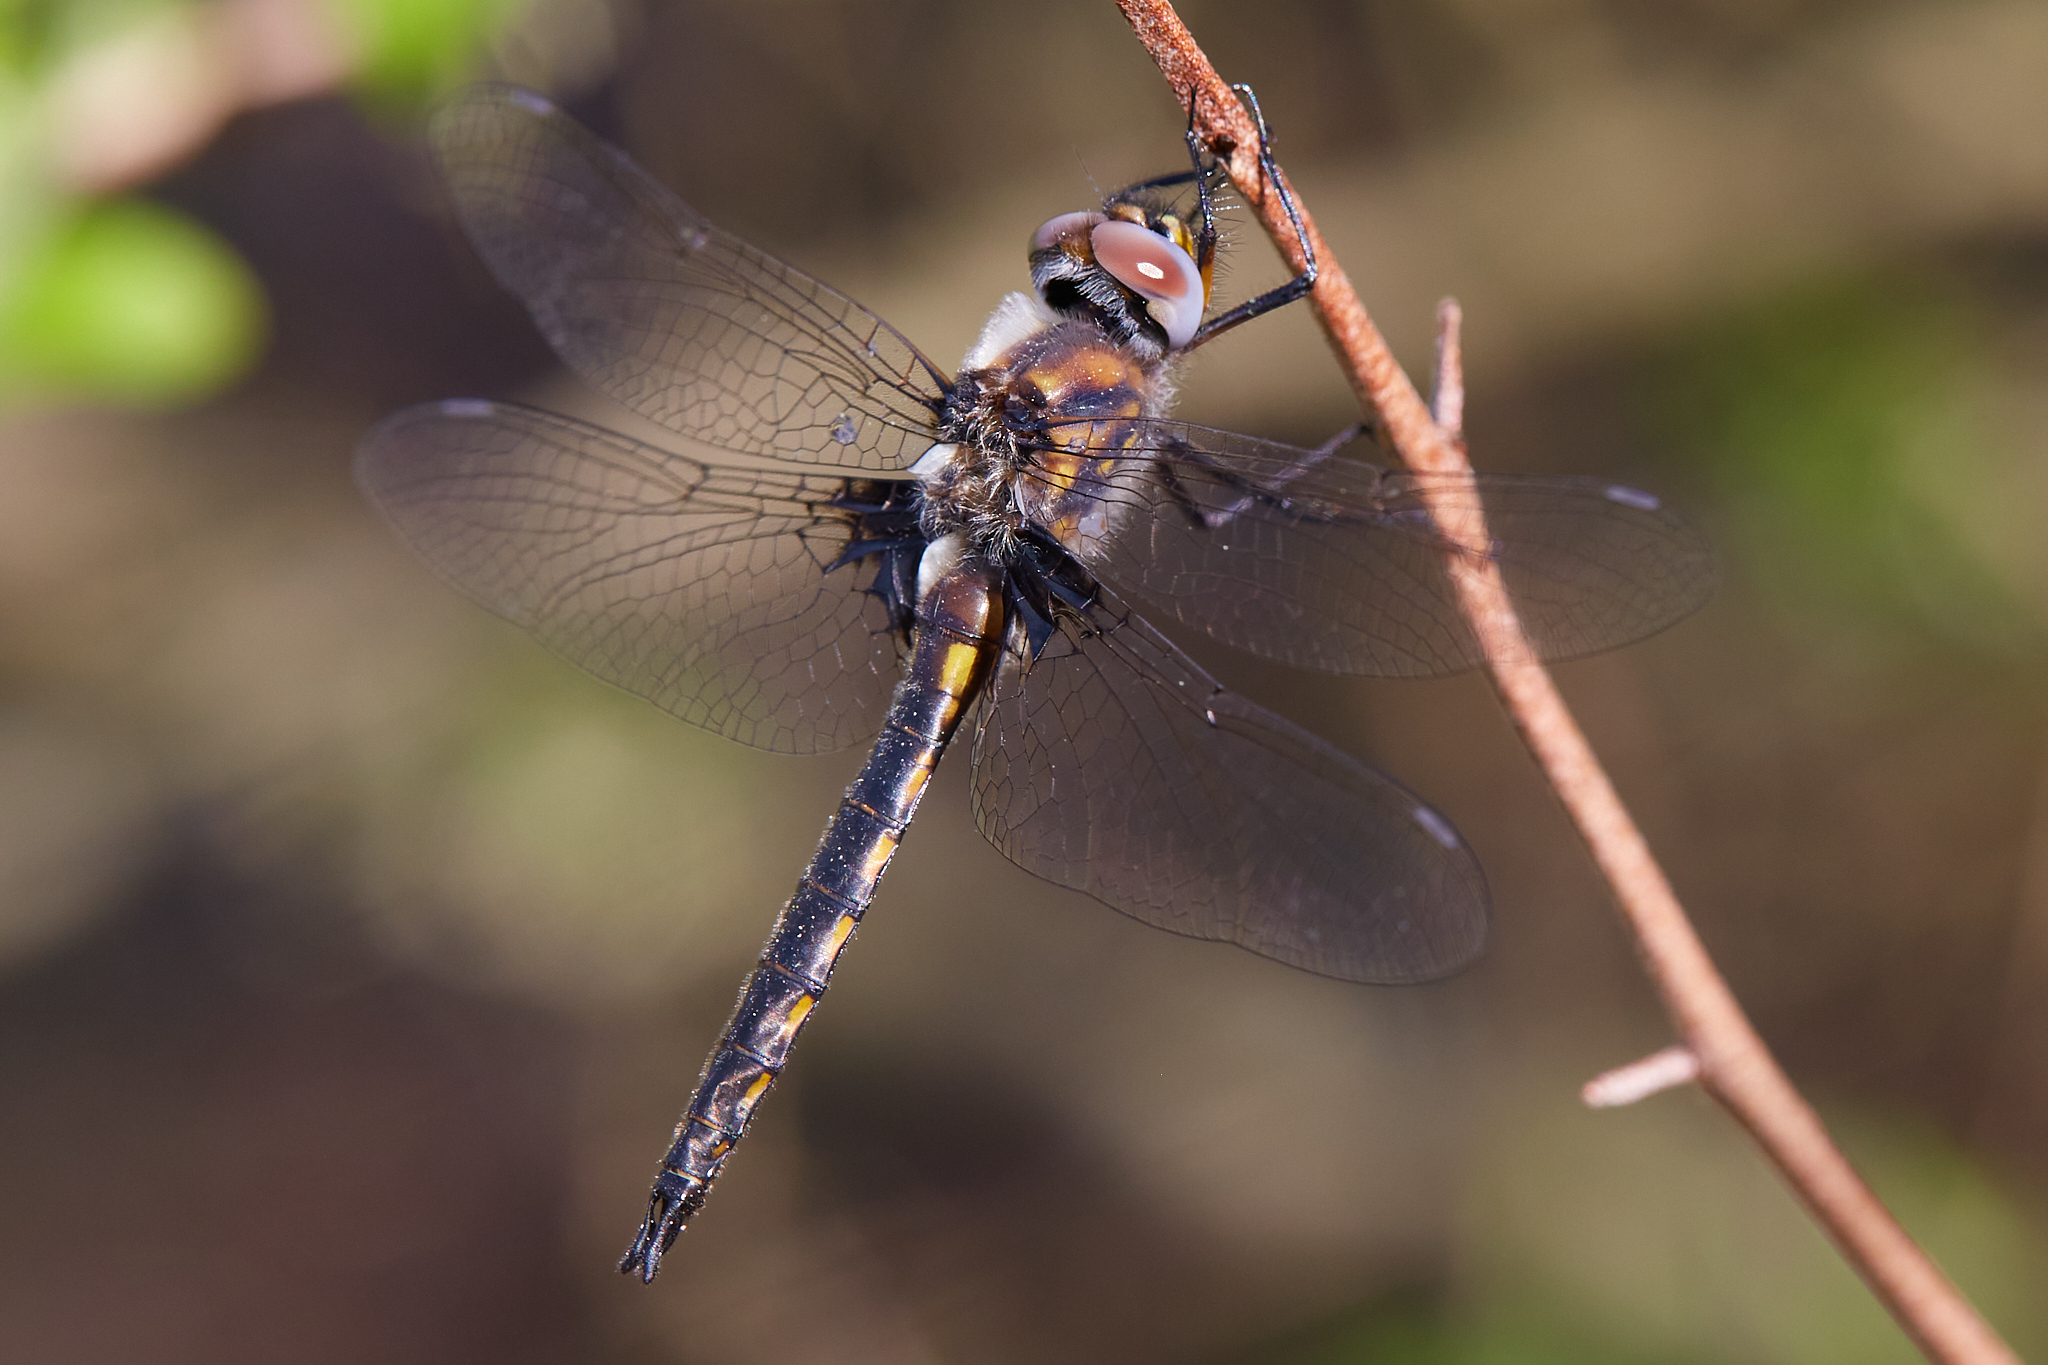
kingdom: Animalia
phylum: Arthropoda
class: Insecta
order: Odonata
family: Corduliidae
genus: Epitheca
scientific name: Epitheca cynosura
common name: Common baskettail
